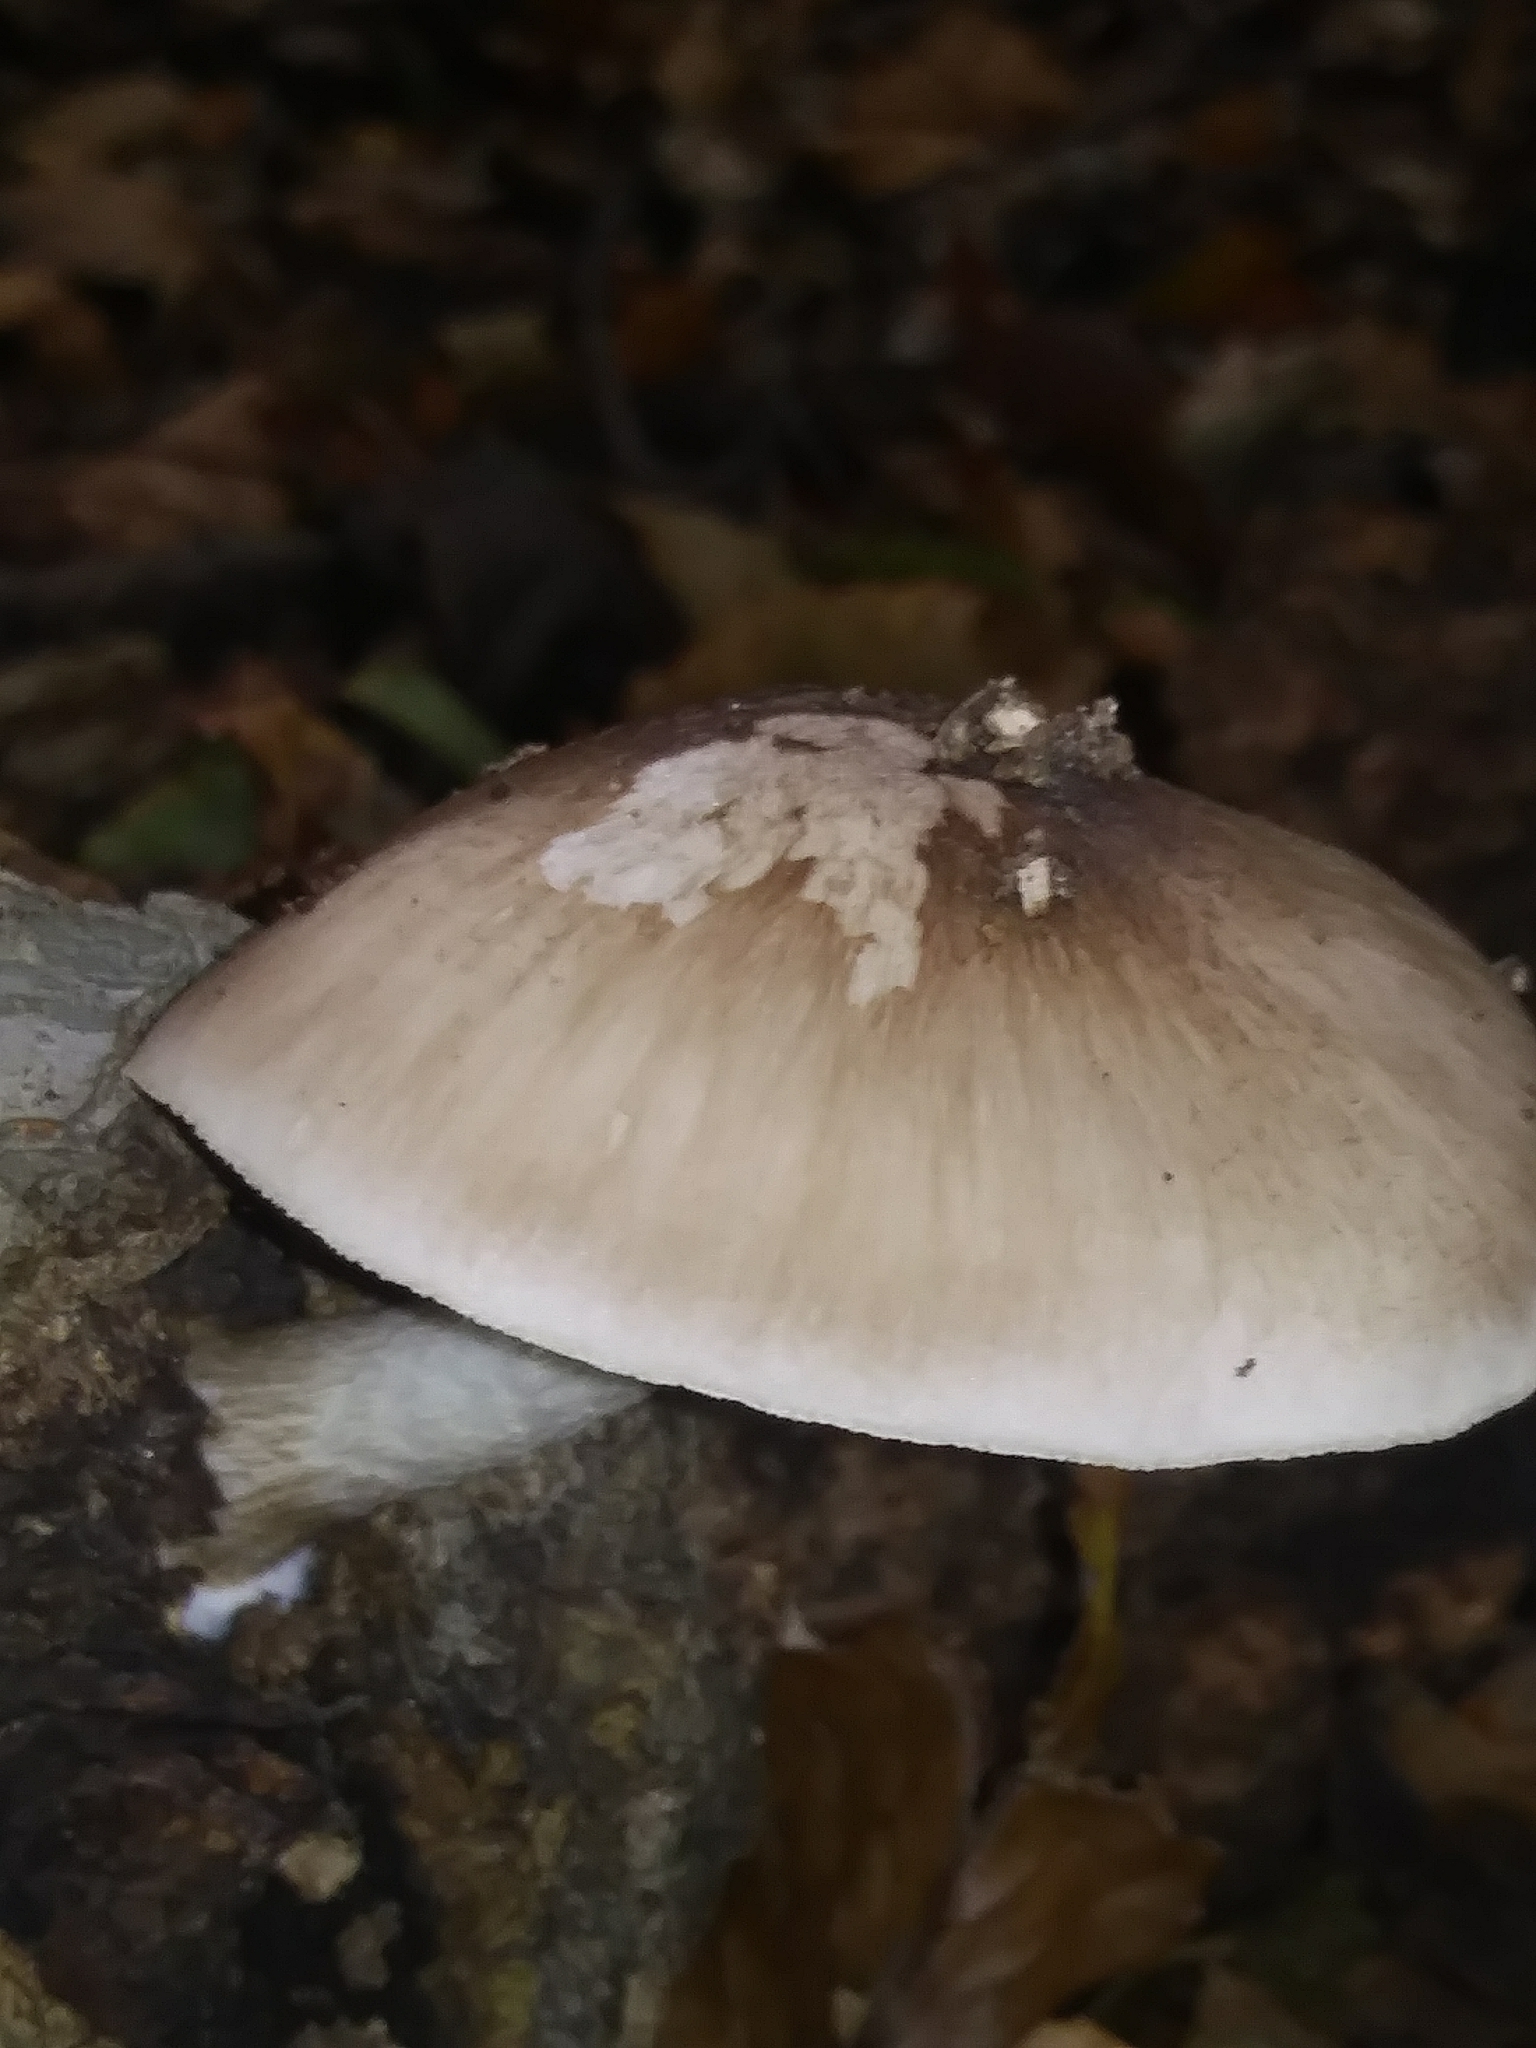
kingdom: Fungi
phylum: Basidiomycota
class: Agaricomycetes
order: Agaricales
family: Pluteaceae
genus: Pluteus
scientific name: Pluteus cervinus
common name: Deer shield
